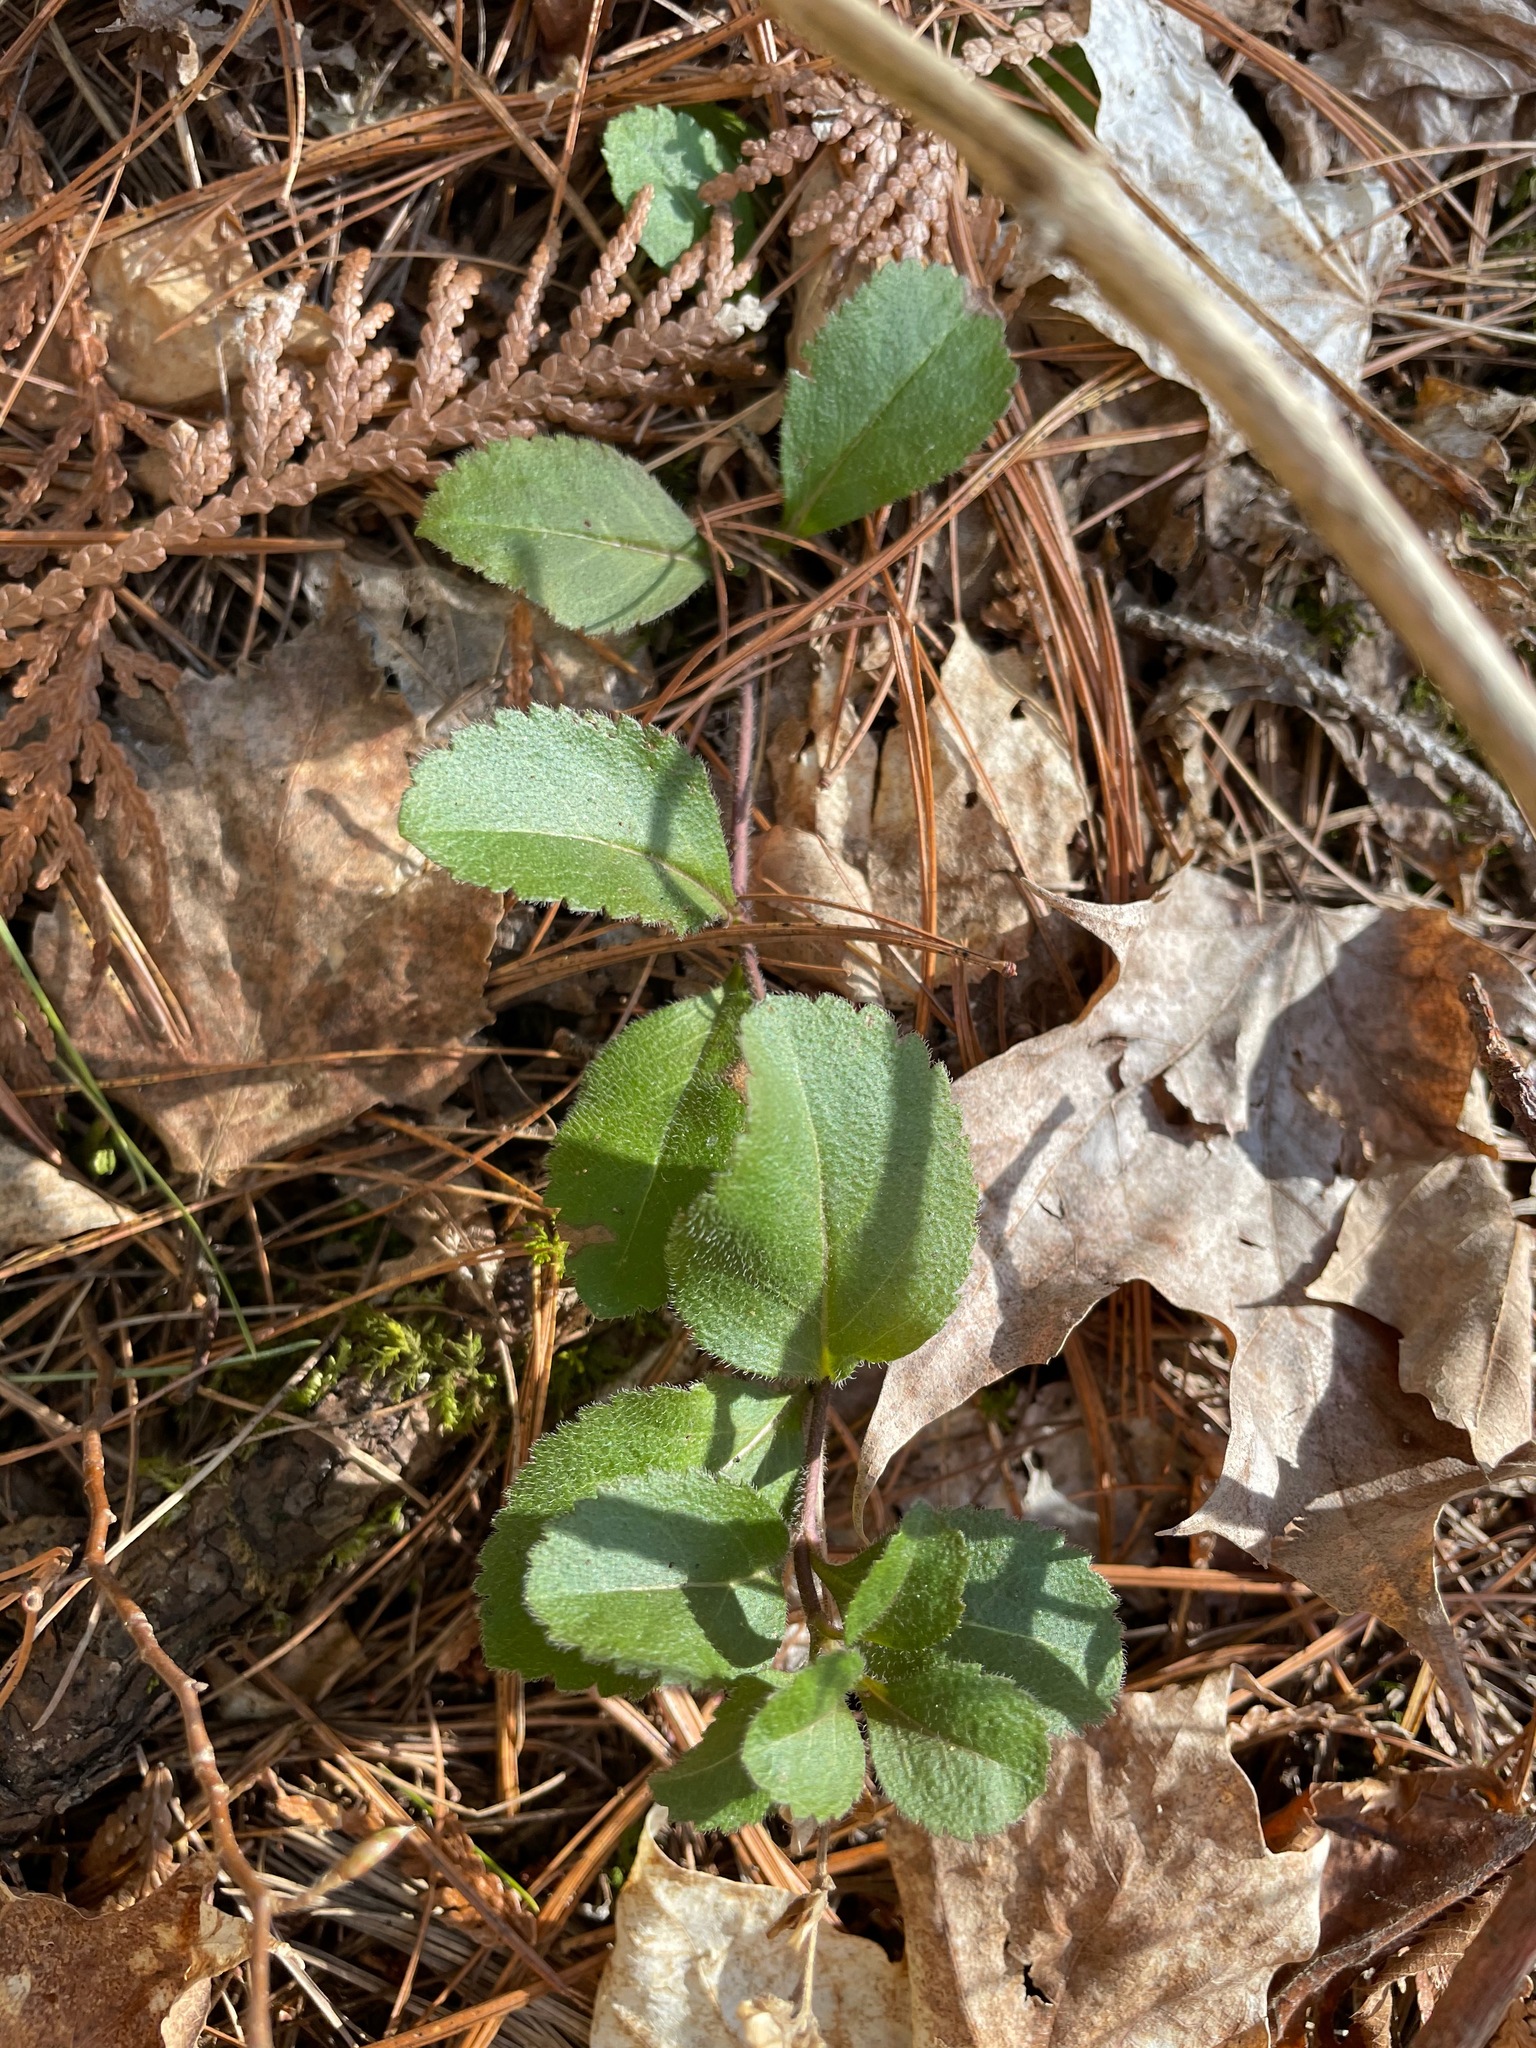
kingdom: Plantae
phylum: Tracheophyta
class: Magnoliopsida
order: Lamiales
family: Plantaginaceae
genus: Veronica
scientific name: Veronica officinalis
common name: Common speedwell
